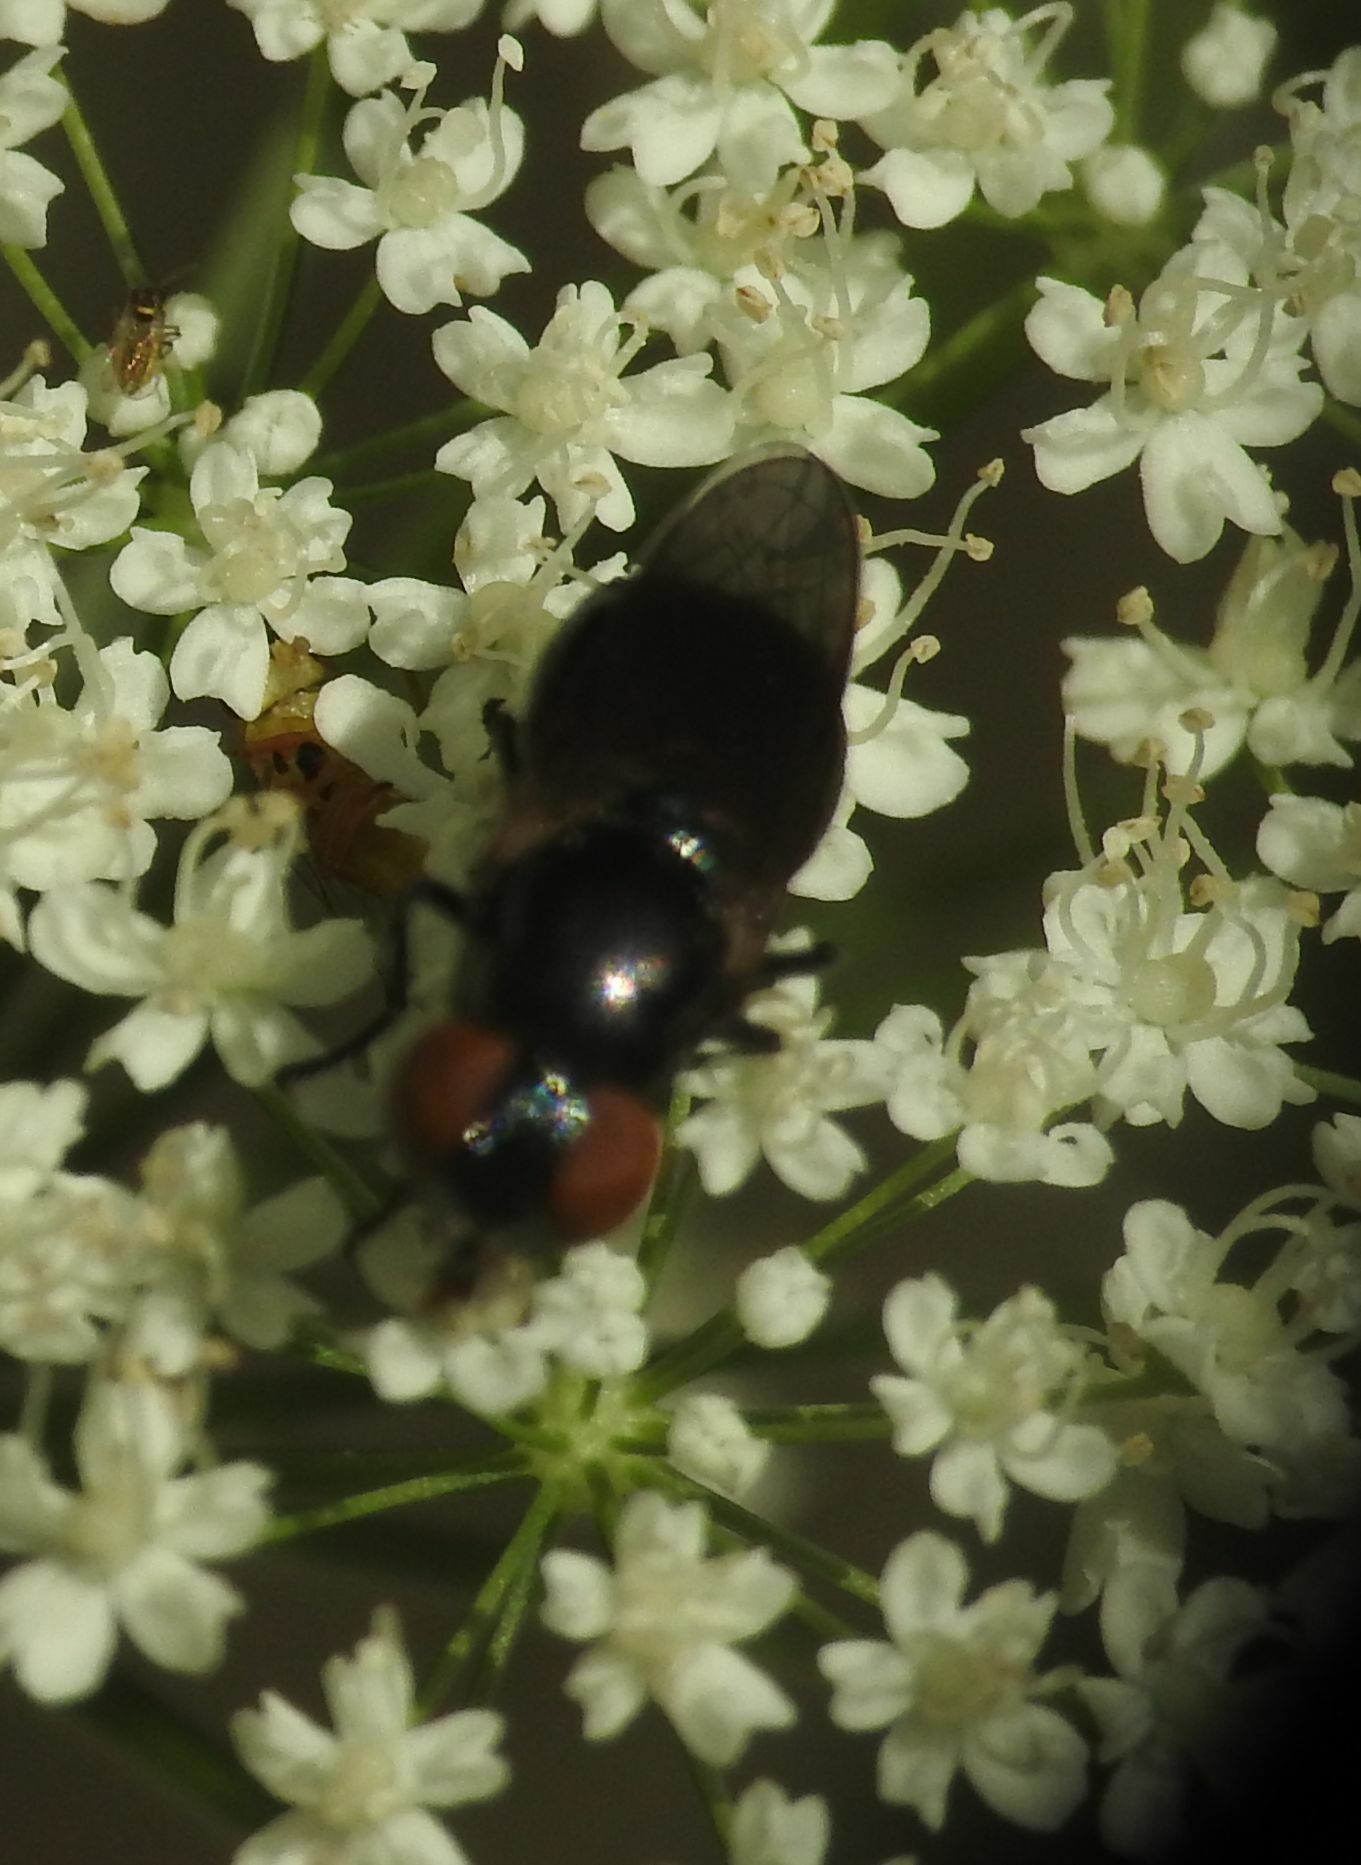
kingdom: Animalia
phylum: Arthropoda
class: Insecta
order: Diptera
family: Syrphidae
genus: Chrysogaster
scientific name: Chrysogaster solstitialis
